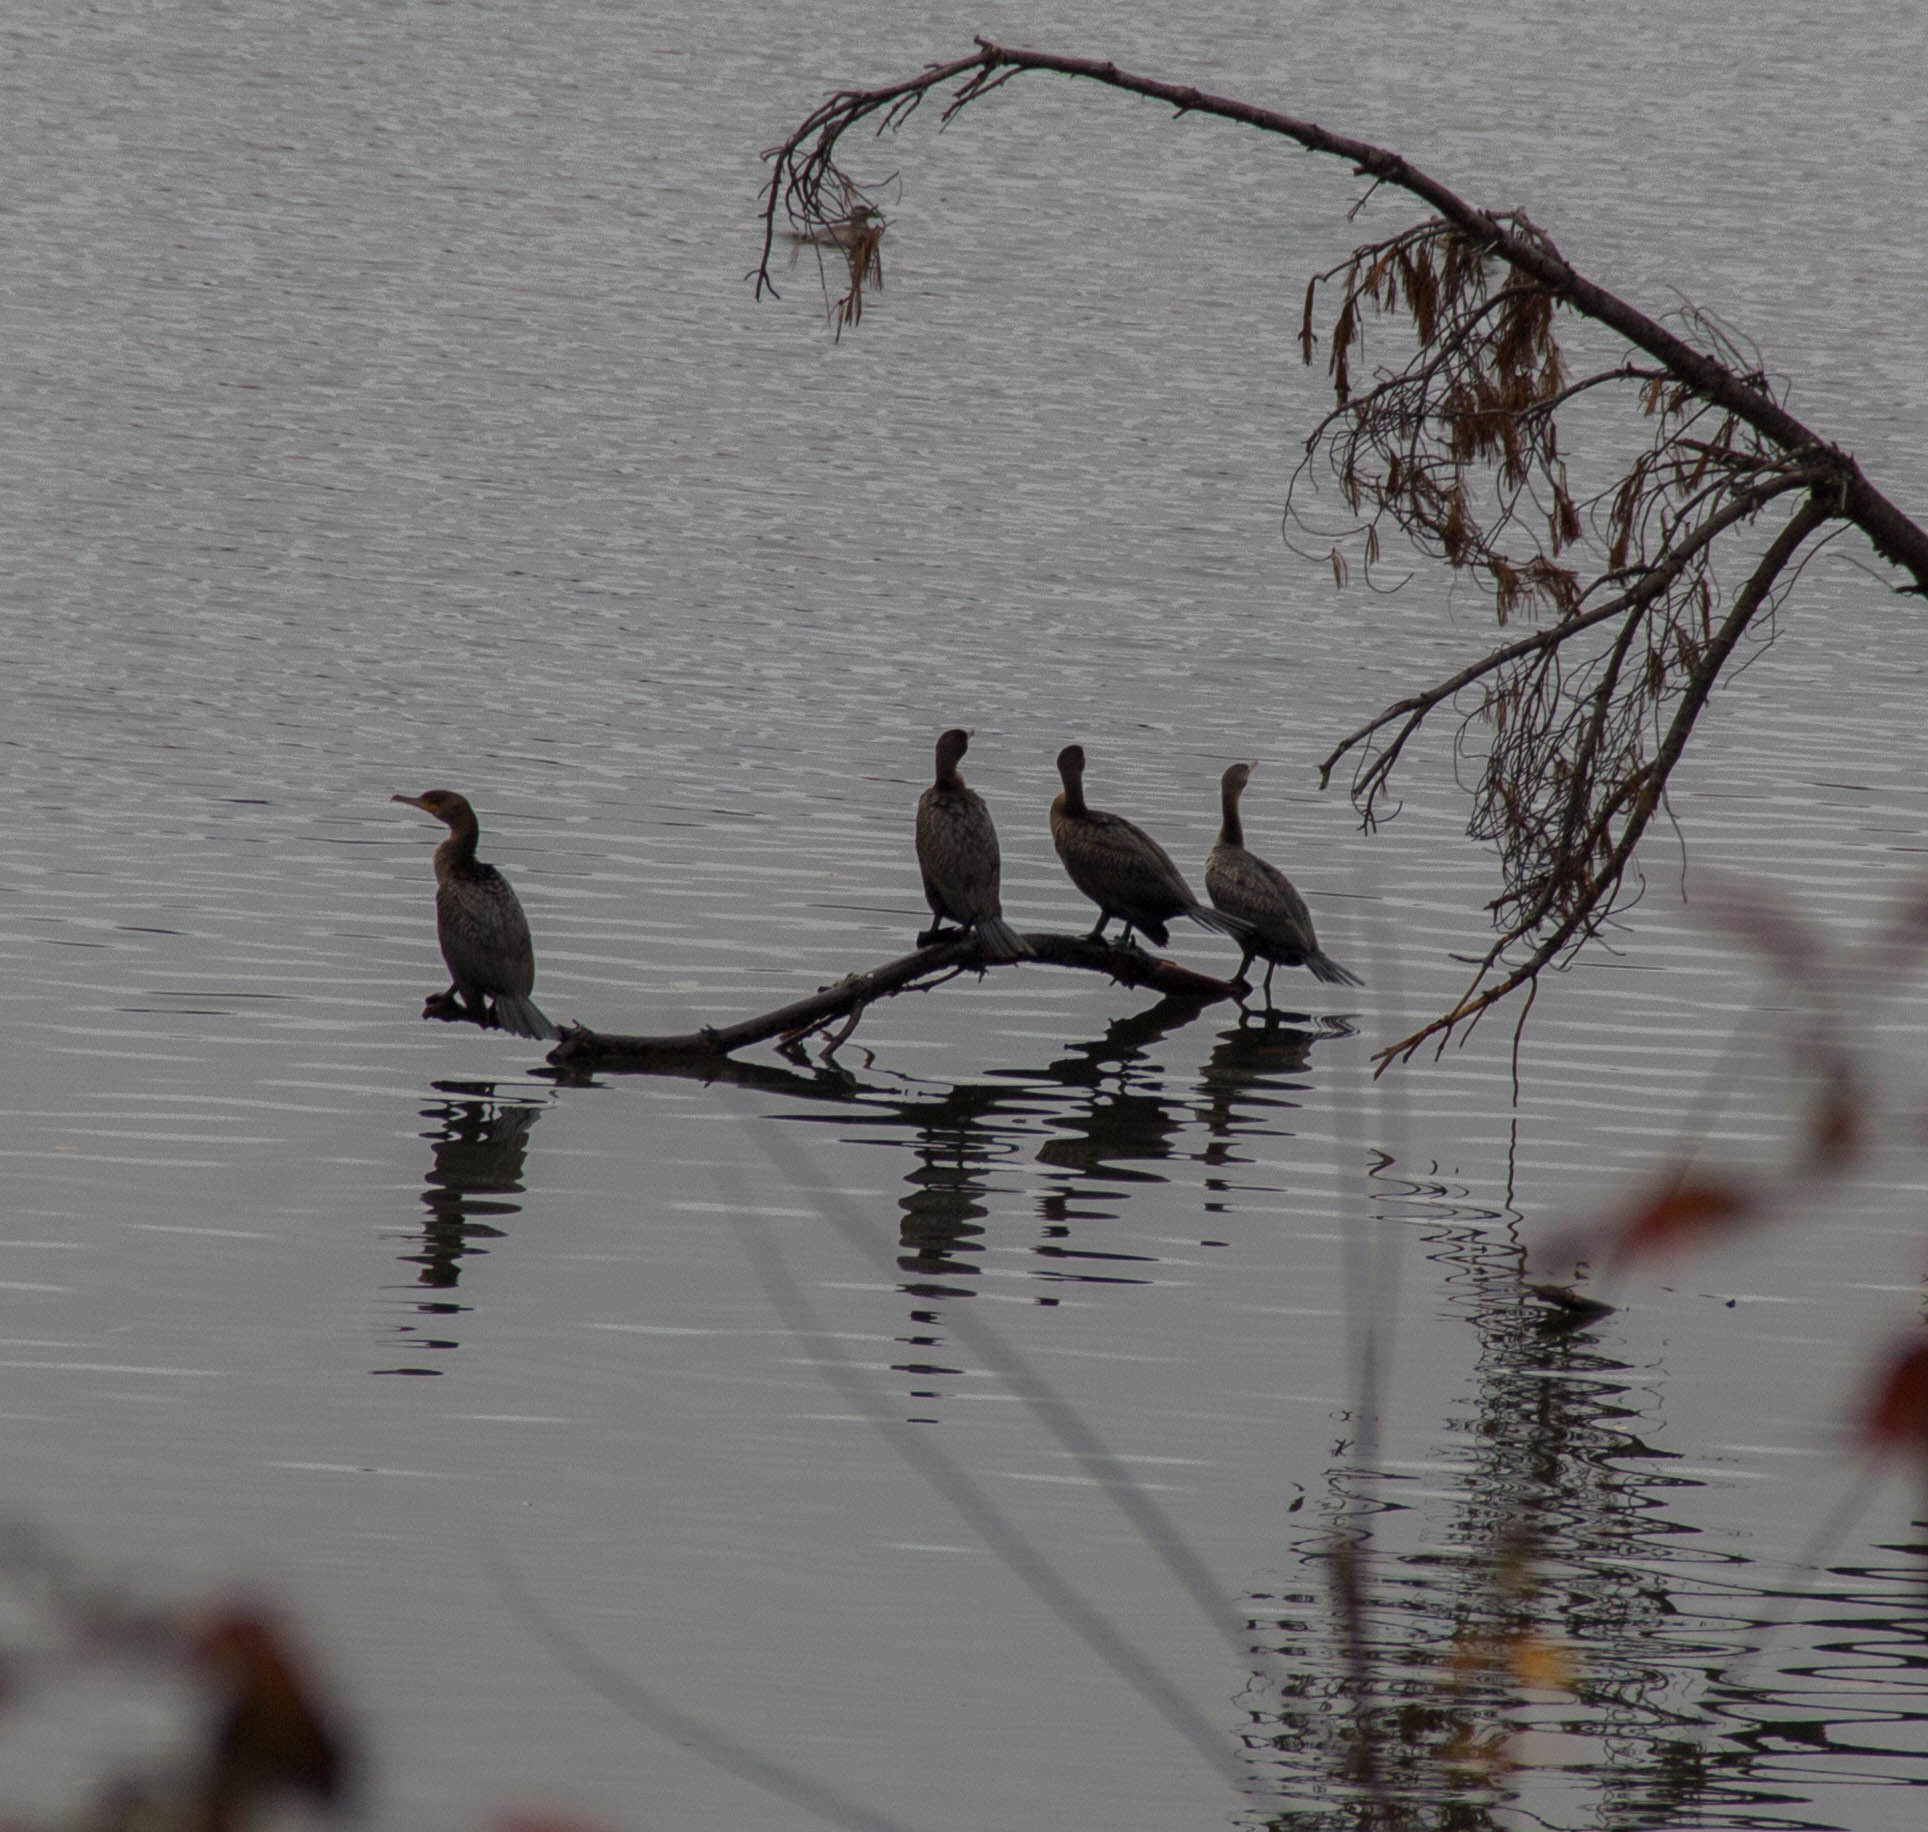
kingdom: Animalia
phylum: Chordata
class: Aves
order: Suliformes
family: Phalacrocoracidae
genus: Phalacrocorax
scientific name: Phalacrocorax auritus
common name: Double-crested cormorant
